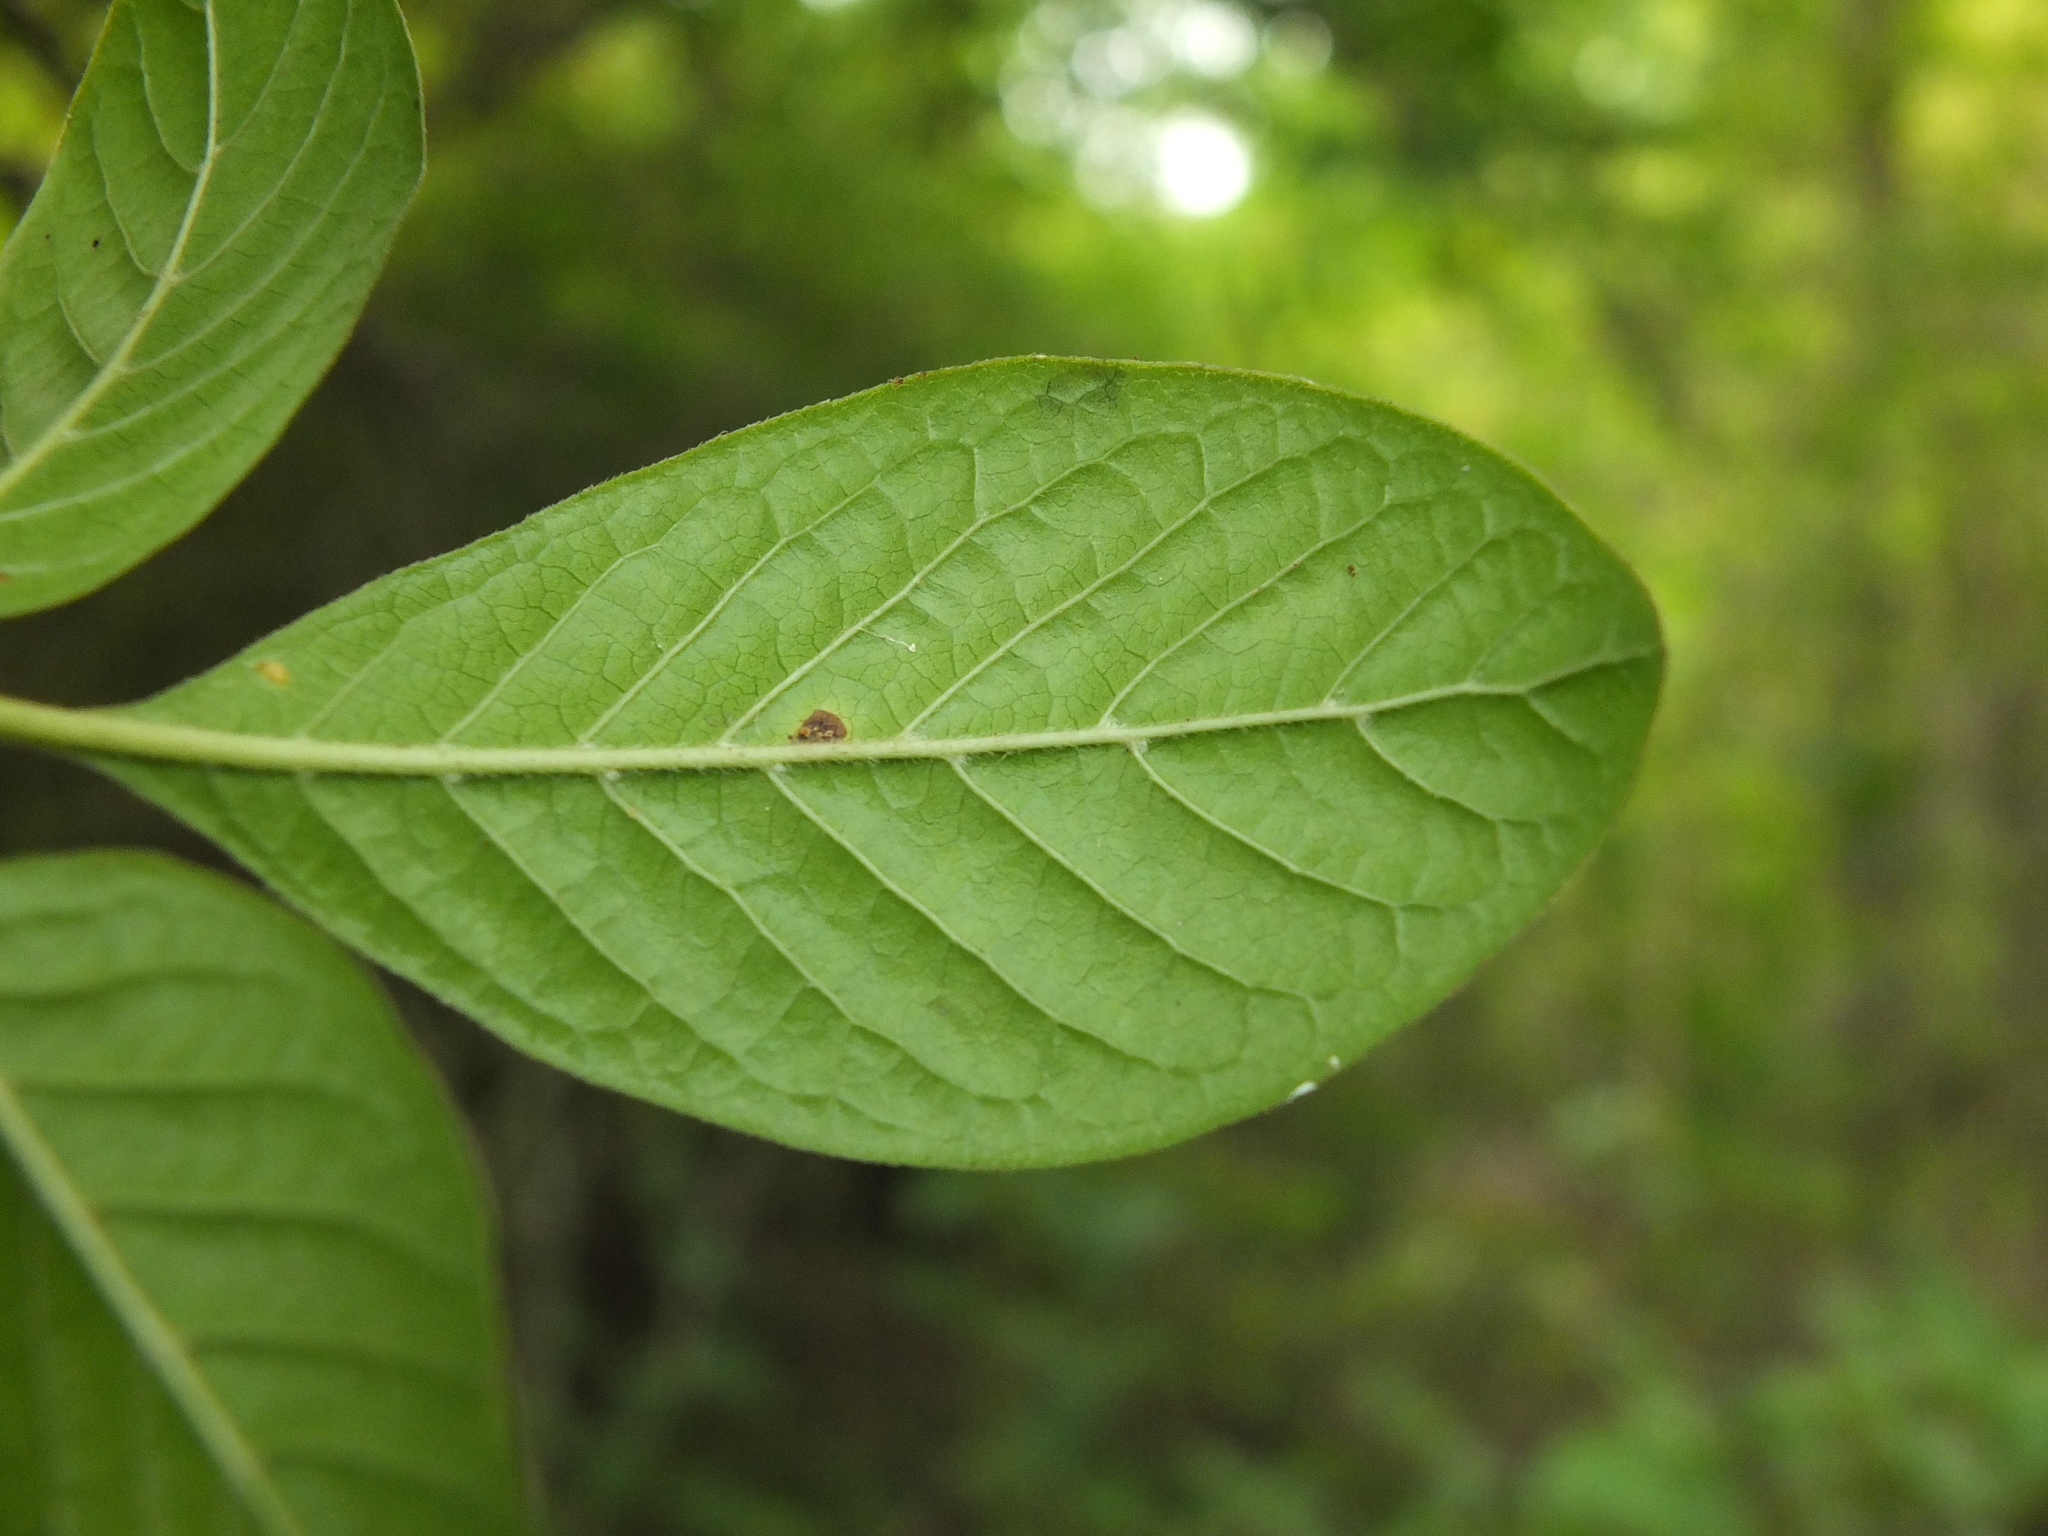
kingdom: Plantae
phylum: Tracheophyta
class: Magnoliopsida
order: Gentianales
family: Rubiaceae
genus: Catunaregam
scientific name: Catunaregam spinosa
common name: Emetic-nut
